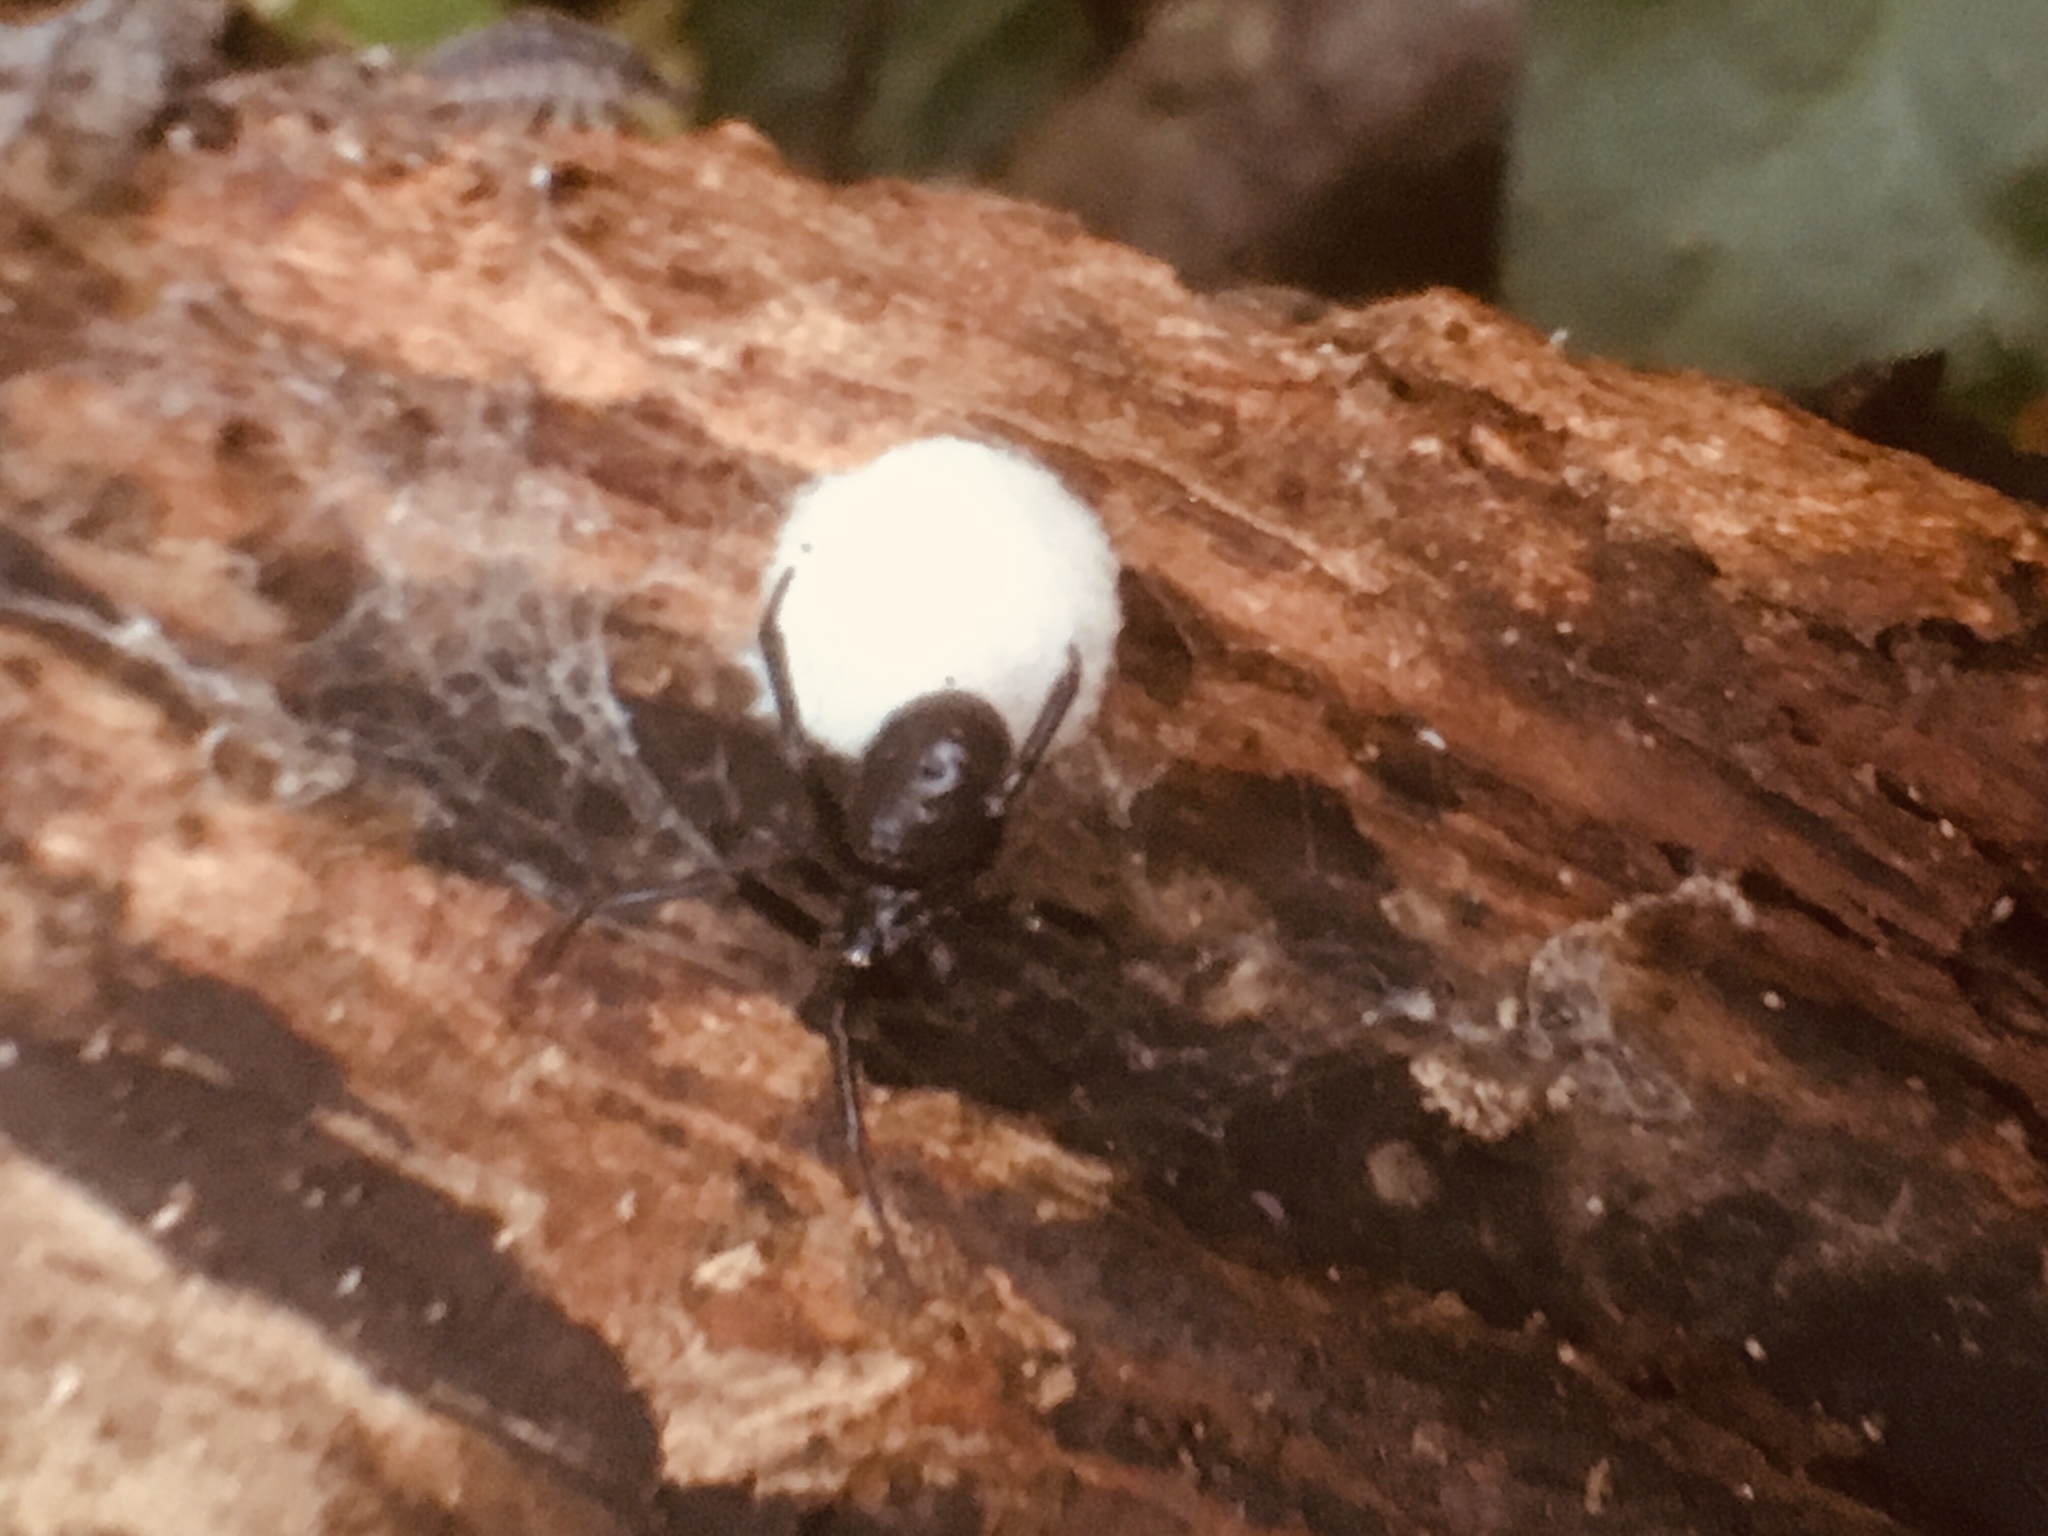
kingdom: Animalia
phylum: Arthropoda
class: Arachnida
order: Araneae
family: Theridiidae
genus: Steatoda
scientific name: Steatoda capensis
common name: Cobweb weaver
